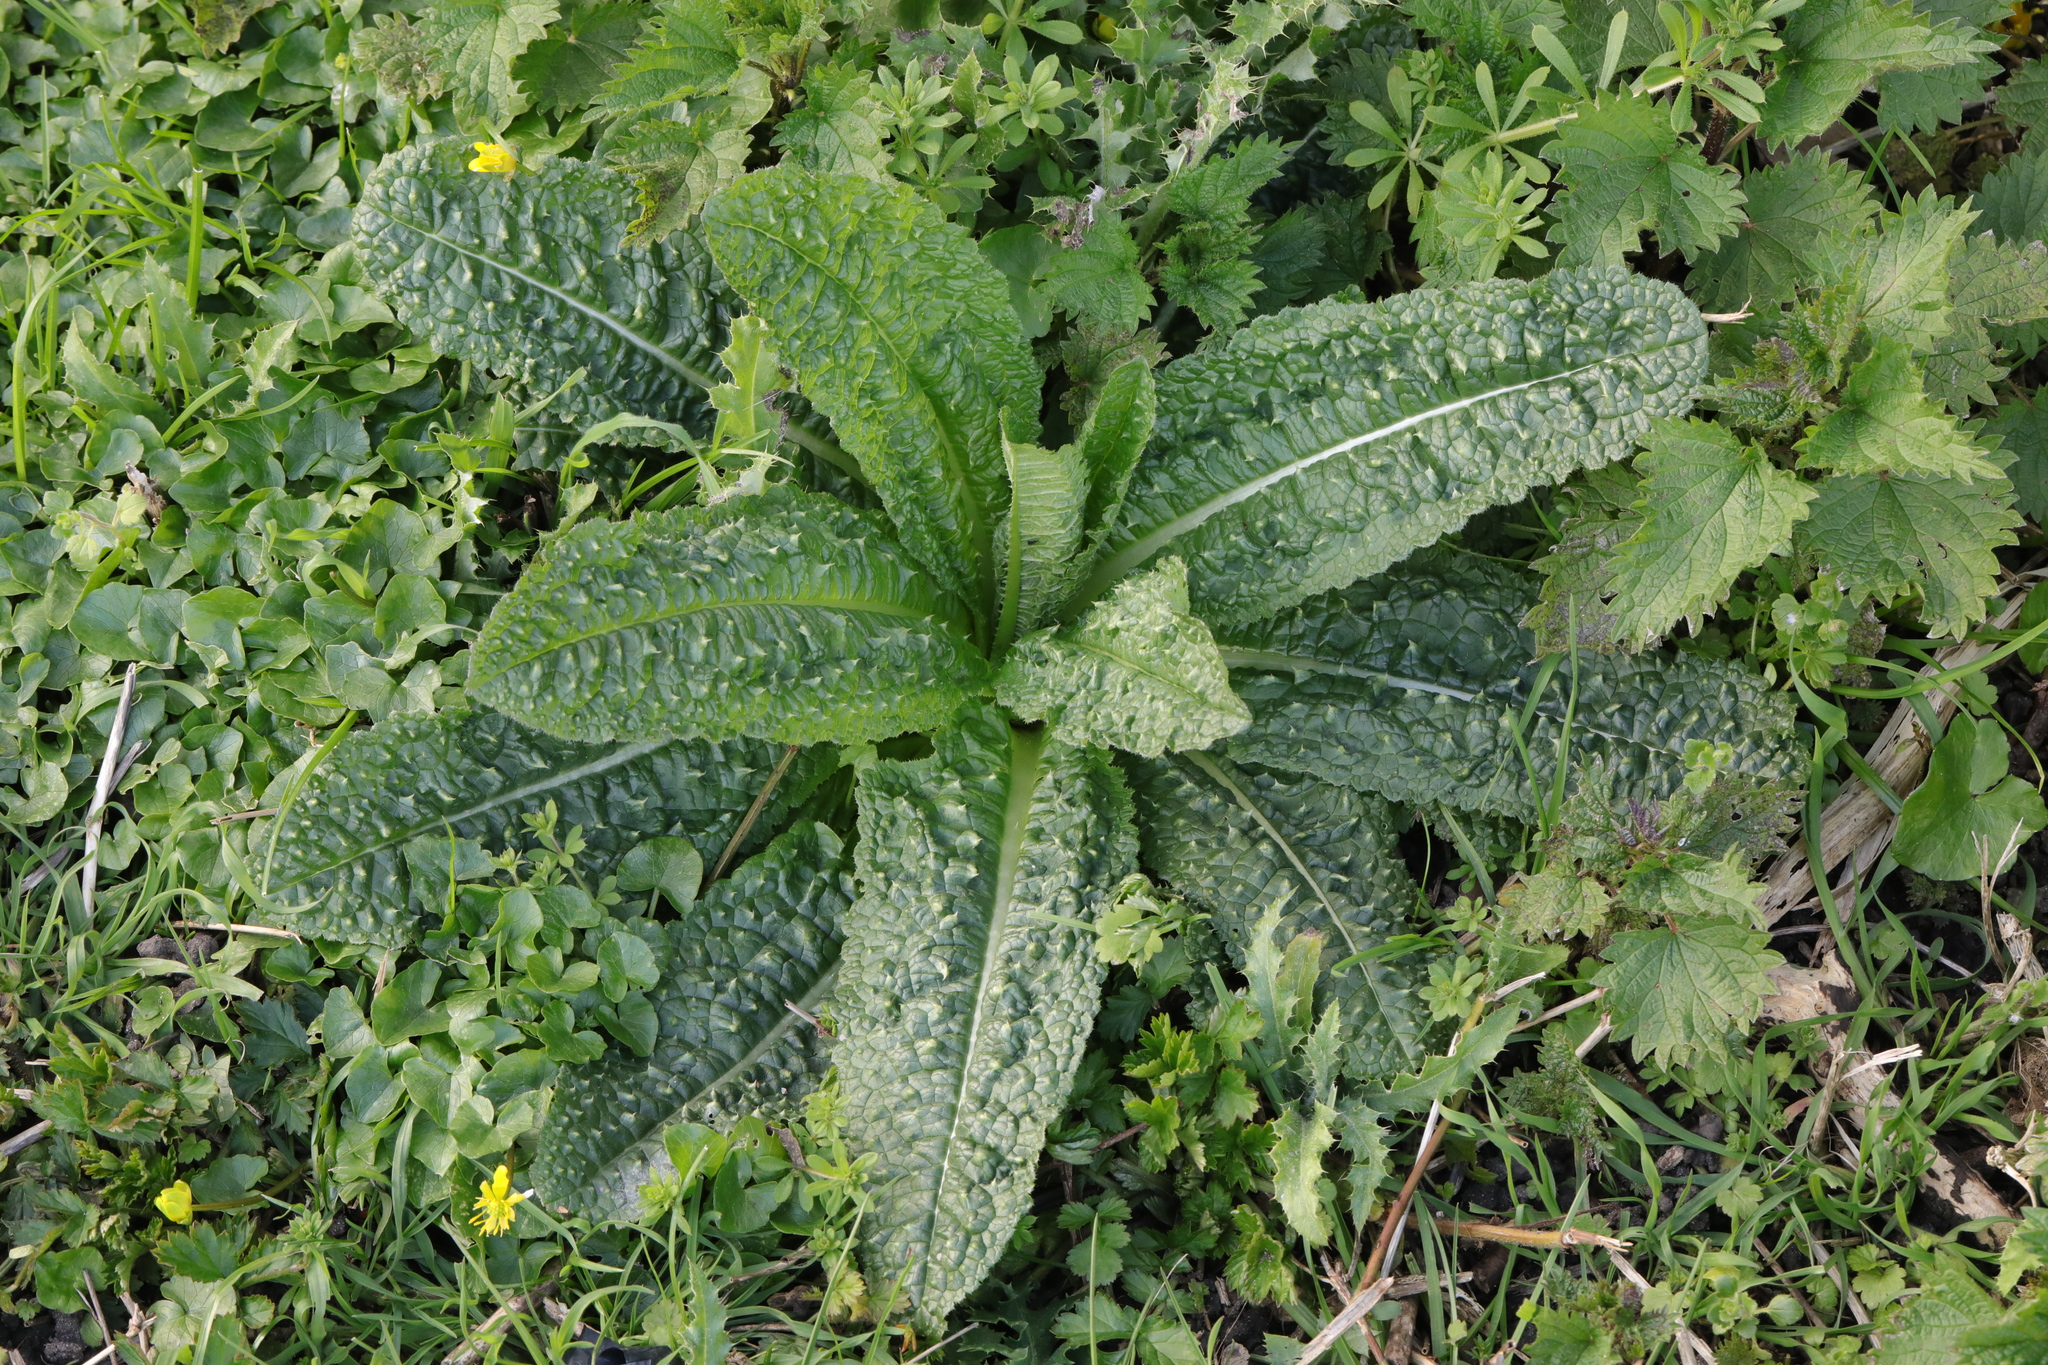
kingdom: Plantae
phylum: Tracheophyta
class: Magnoliopsida
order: Dipsacales
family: Caprifoliaceae
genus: Dipsacus
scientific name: Dipsacus fullonum
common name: Teasel
